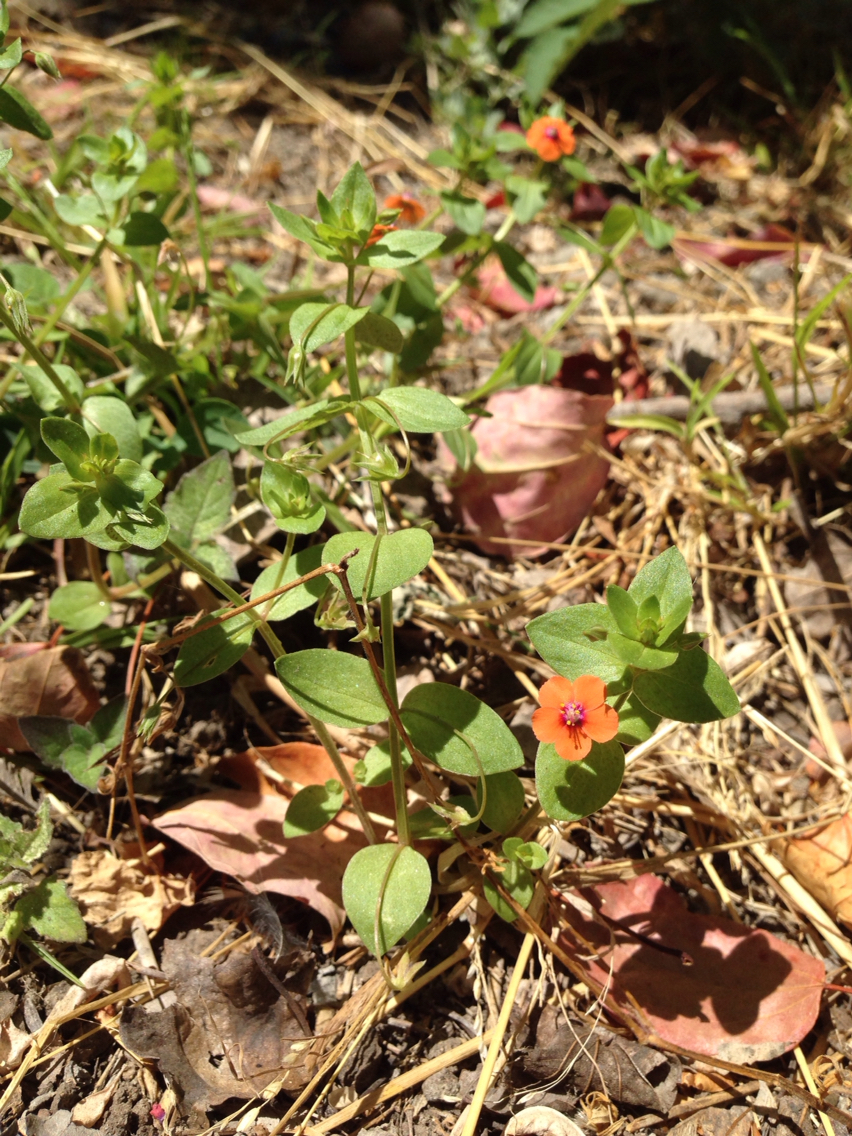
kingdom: Plantae
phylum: Tracheophyta
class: Magnoliopsida
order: Ericales
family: Primulaceae
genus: Lysimachia
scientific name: Lysimachia arvensis
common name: Scarlet pimpernel
